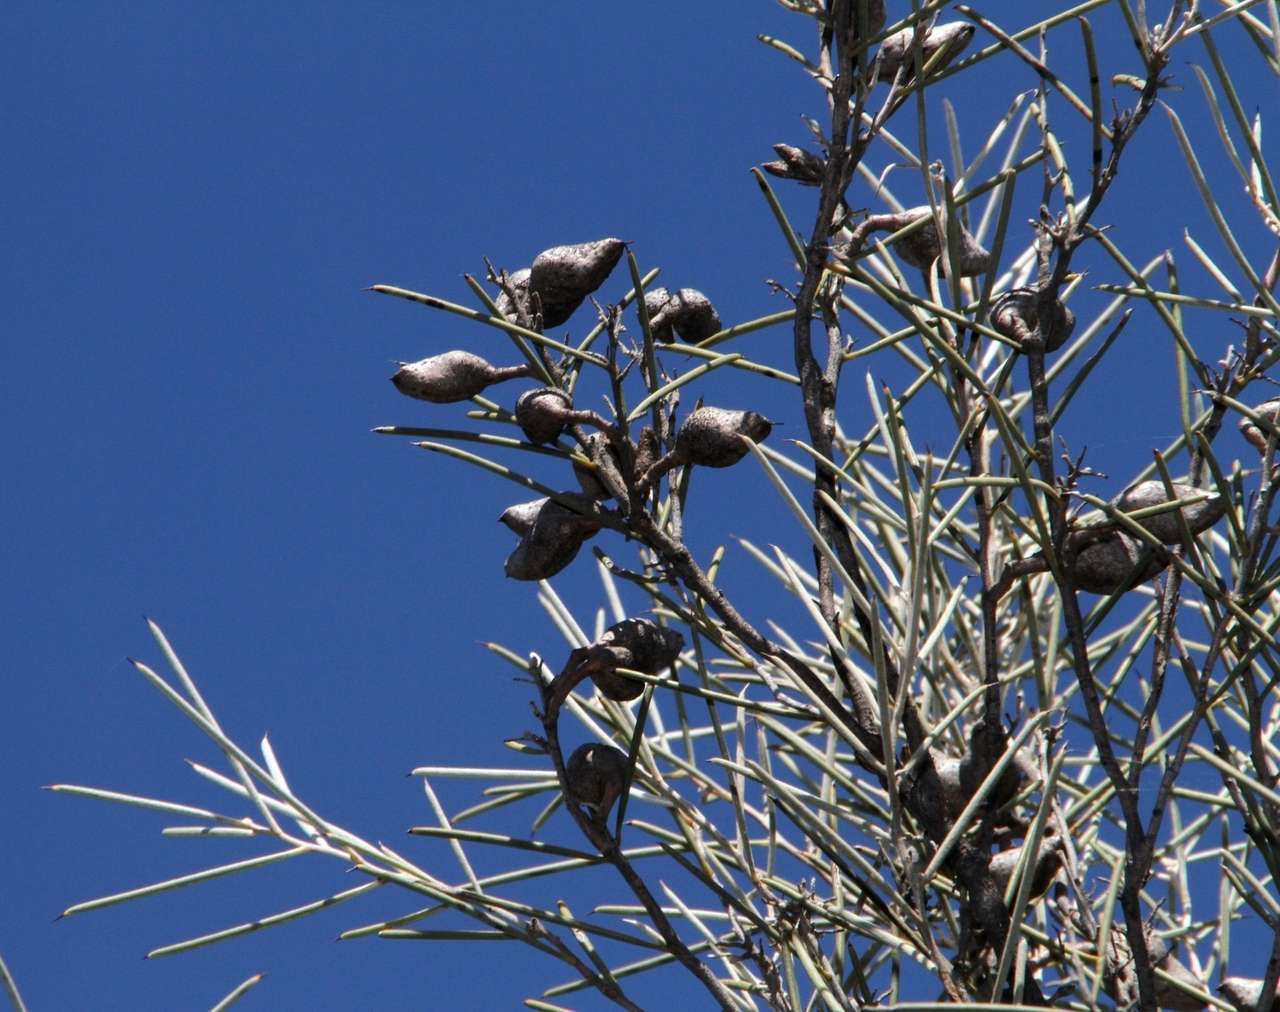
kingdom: Plantae
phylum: Tracheophyta
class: Magnoliopsida
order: Proteales
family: Proteaceae
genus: Hakea
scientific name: Hakea leucoptera
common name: Pinbush
